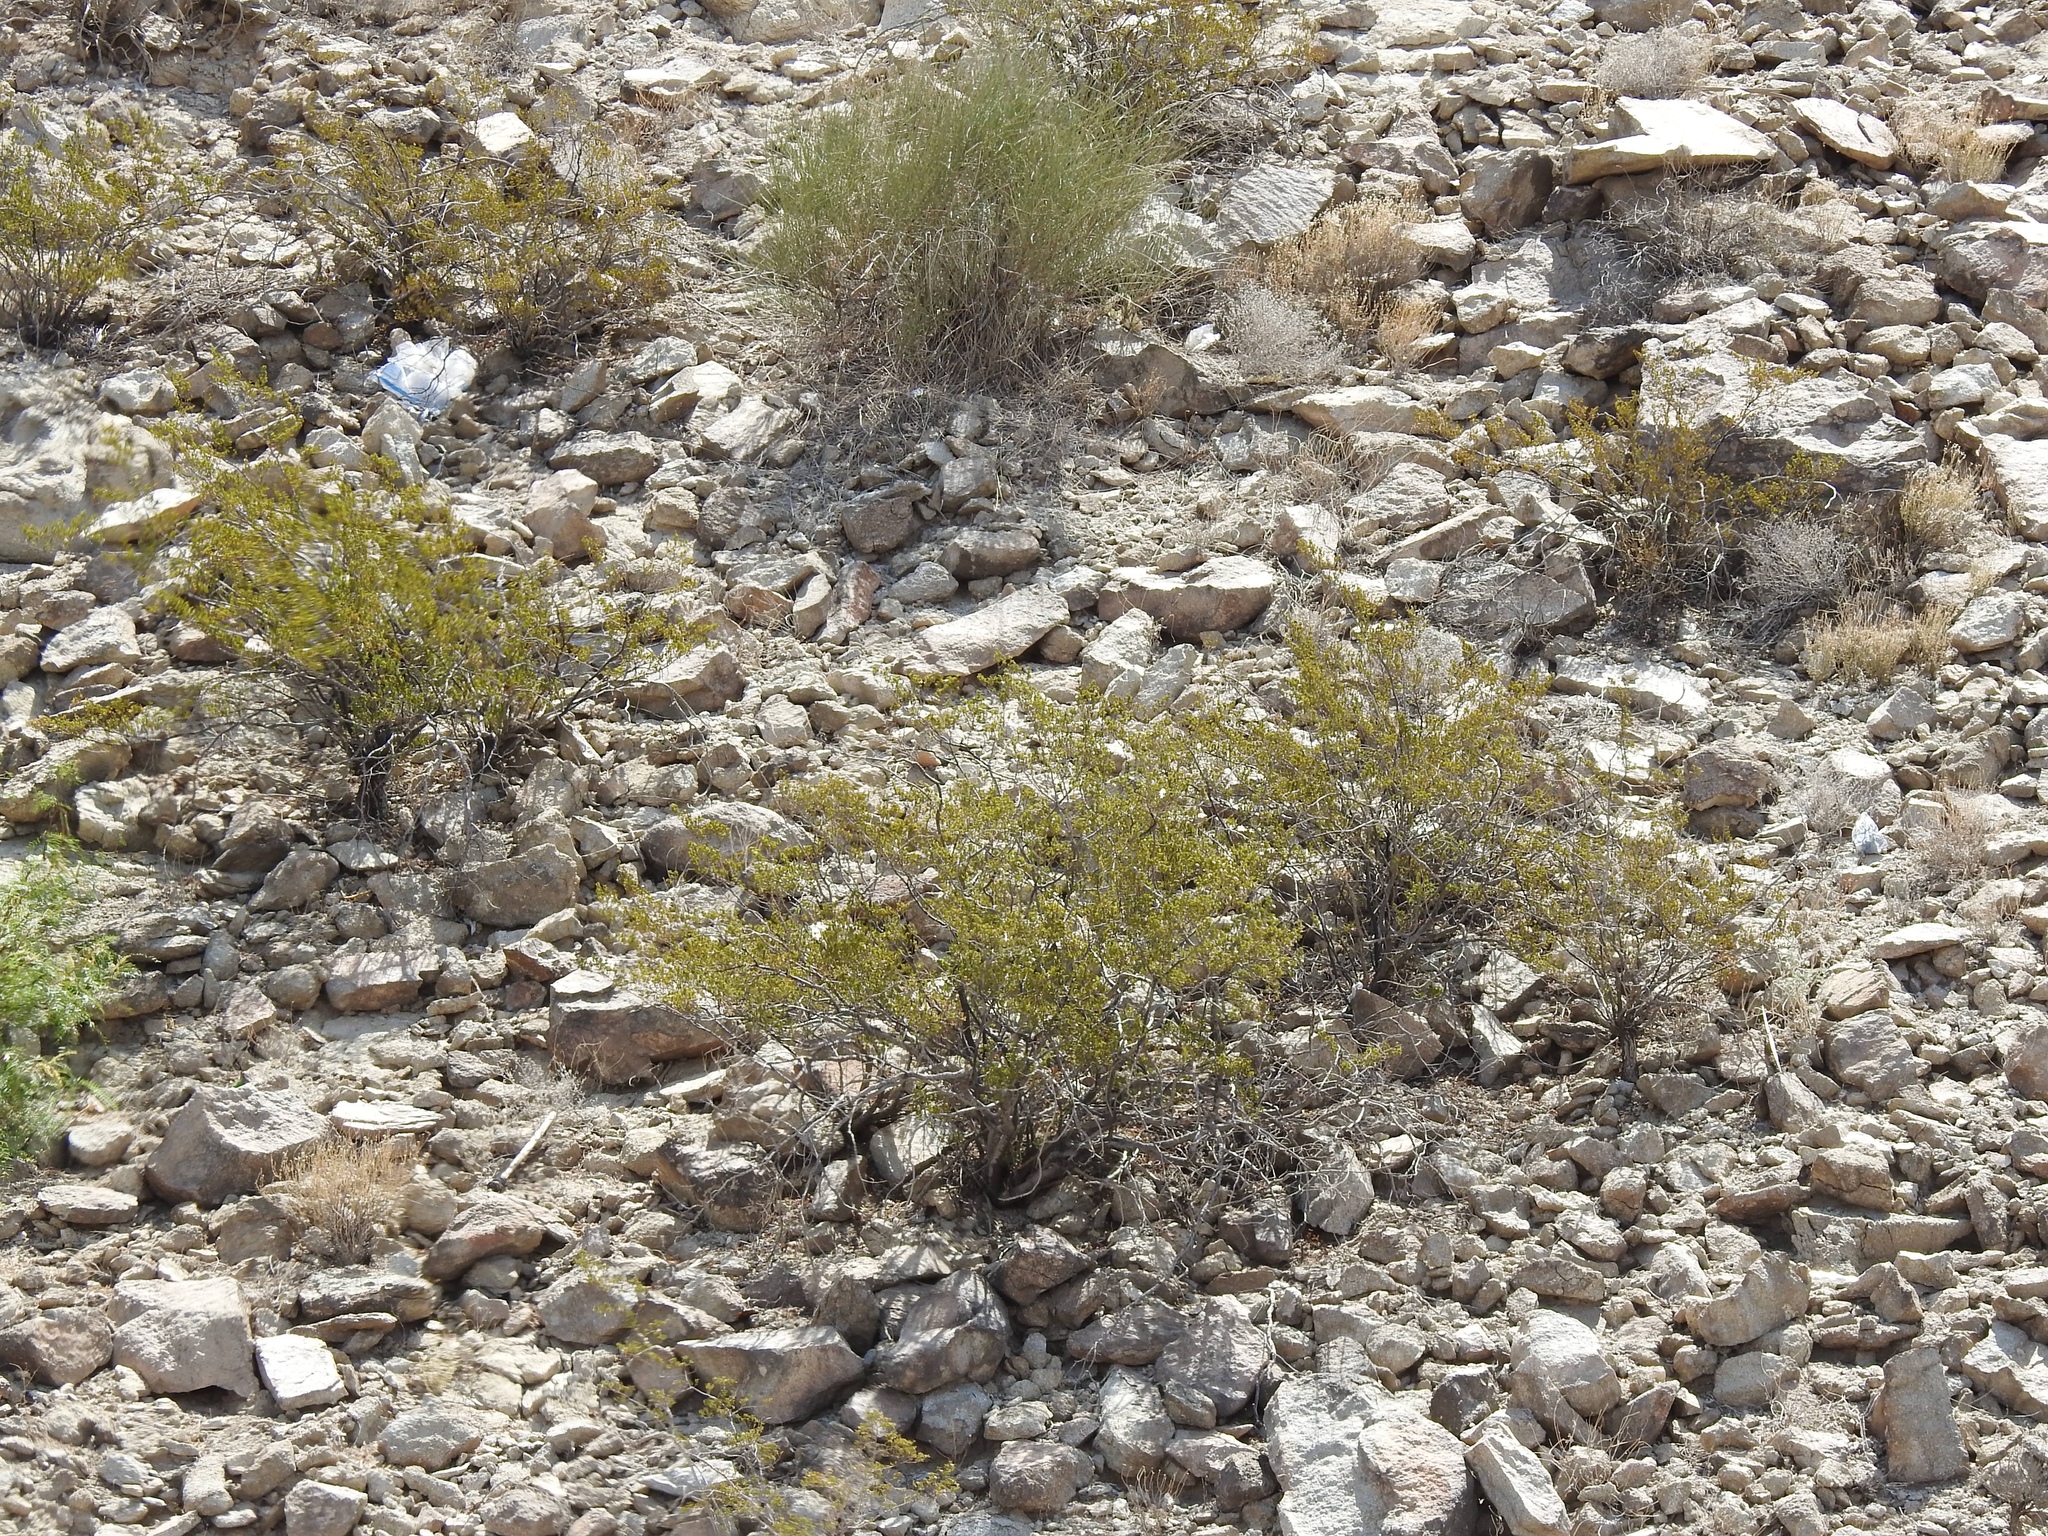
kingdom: Plantae
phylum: Tracheophyta
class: Magnoliopsida
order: Zygophyllales
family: Zygophyllaceae
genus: Larrea
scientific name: Larrea tridentata
